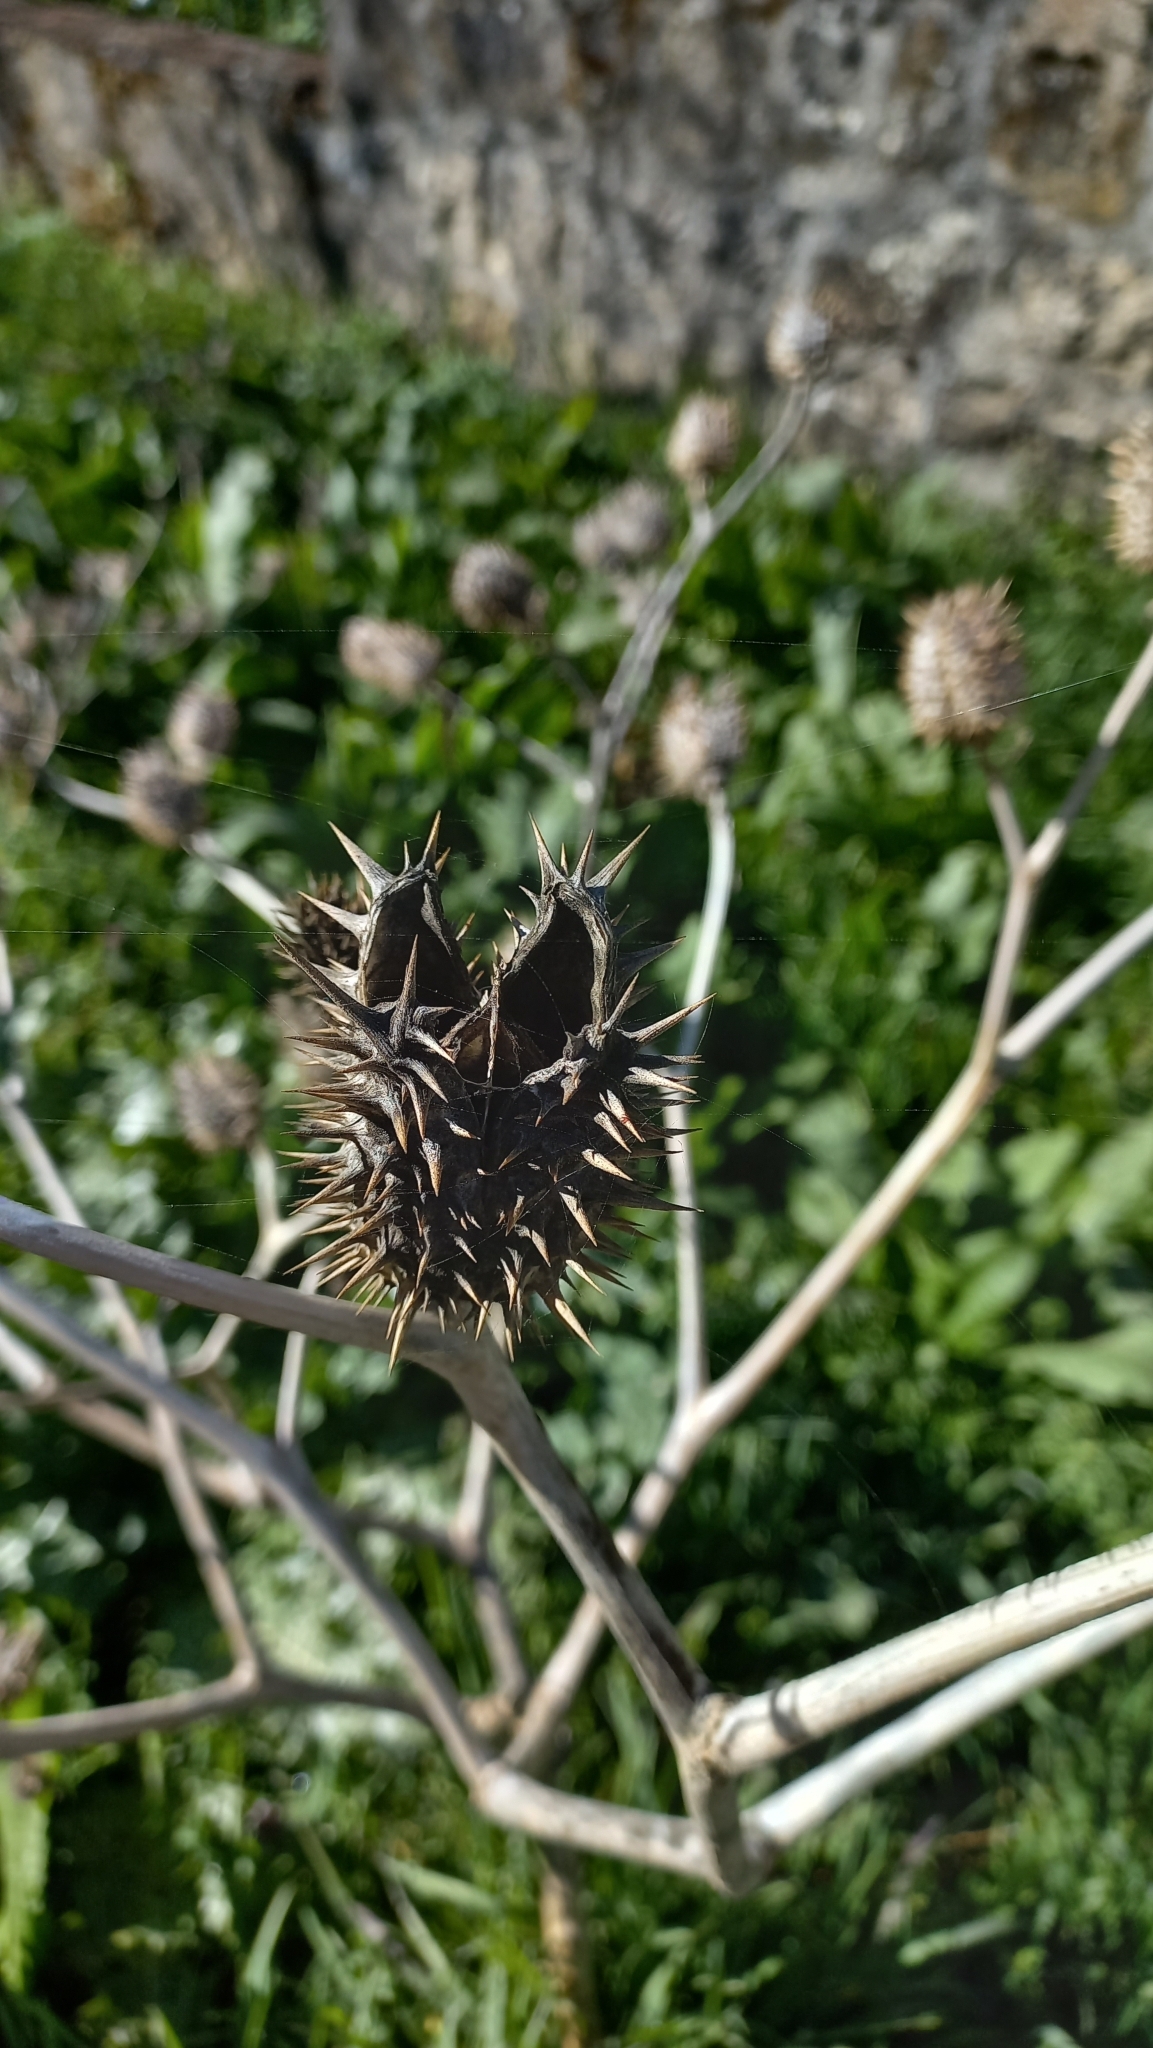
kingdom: Plantae
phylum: Tracheophyta
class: Magnoliopsida
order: Solanales
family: Solanaceae
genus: Datura
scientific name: Datura stramonium
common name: Thorn-apple
